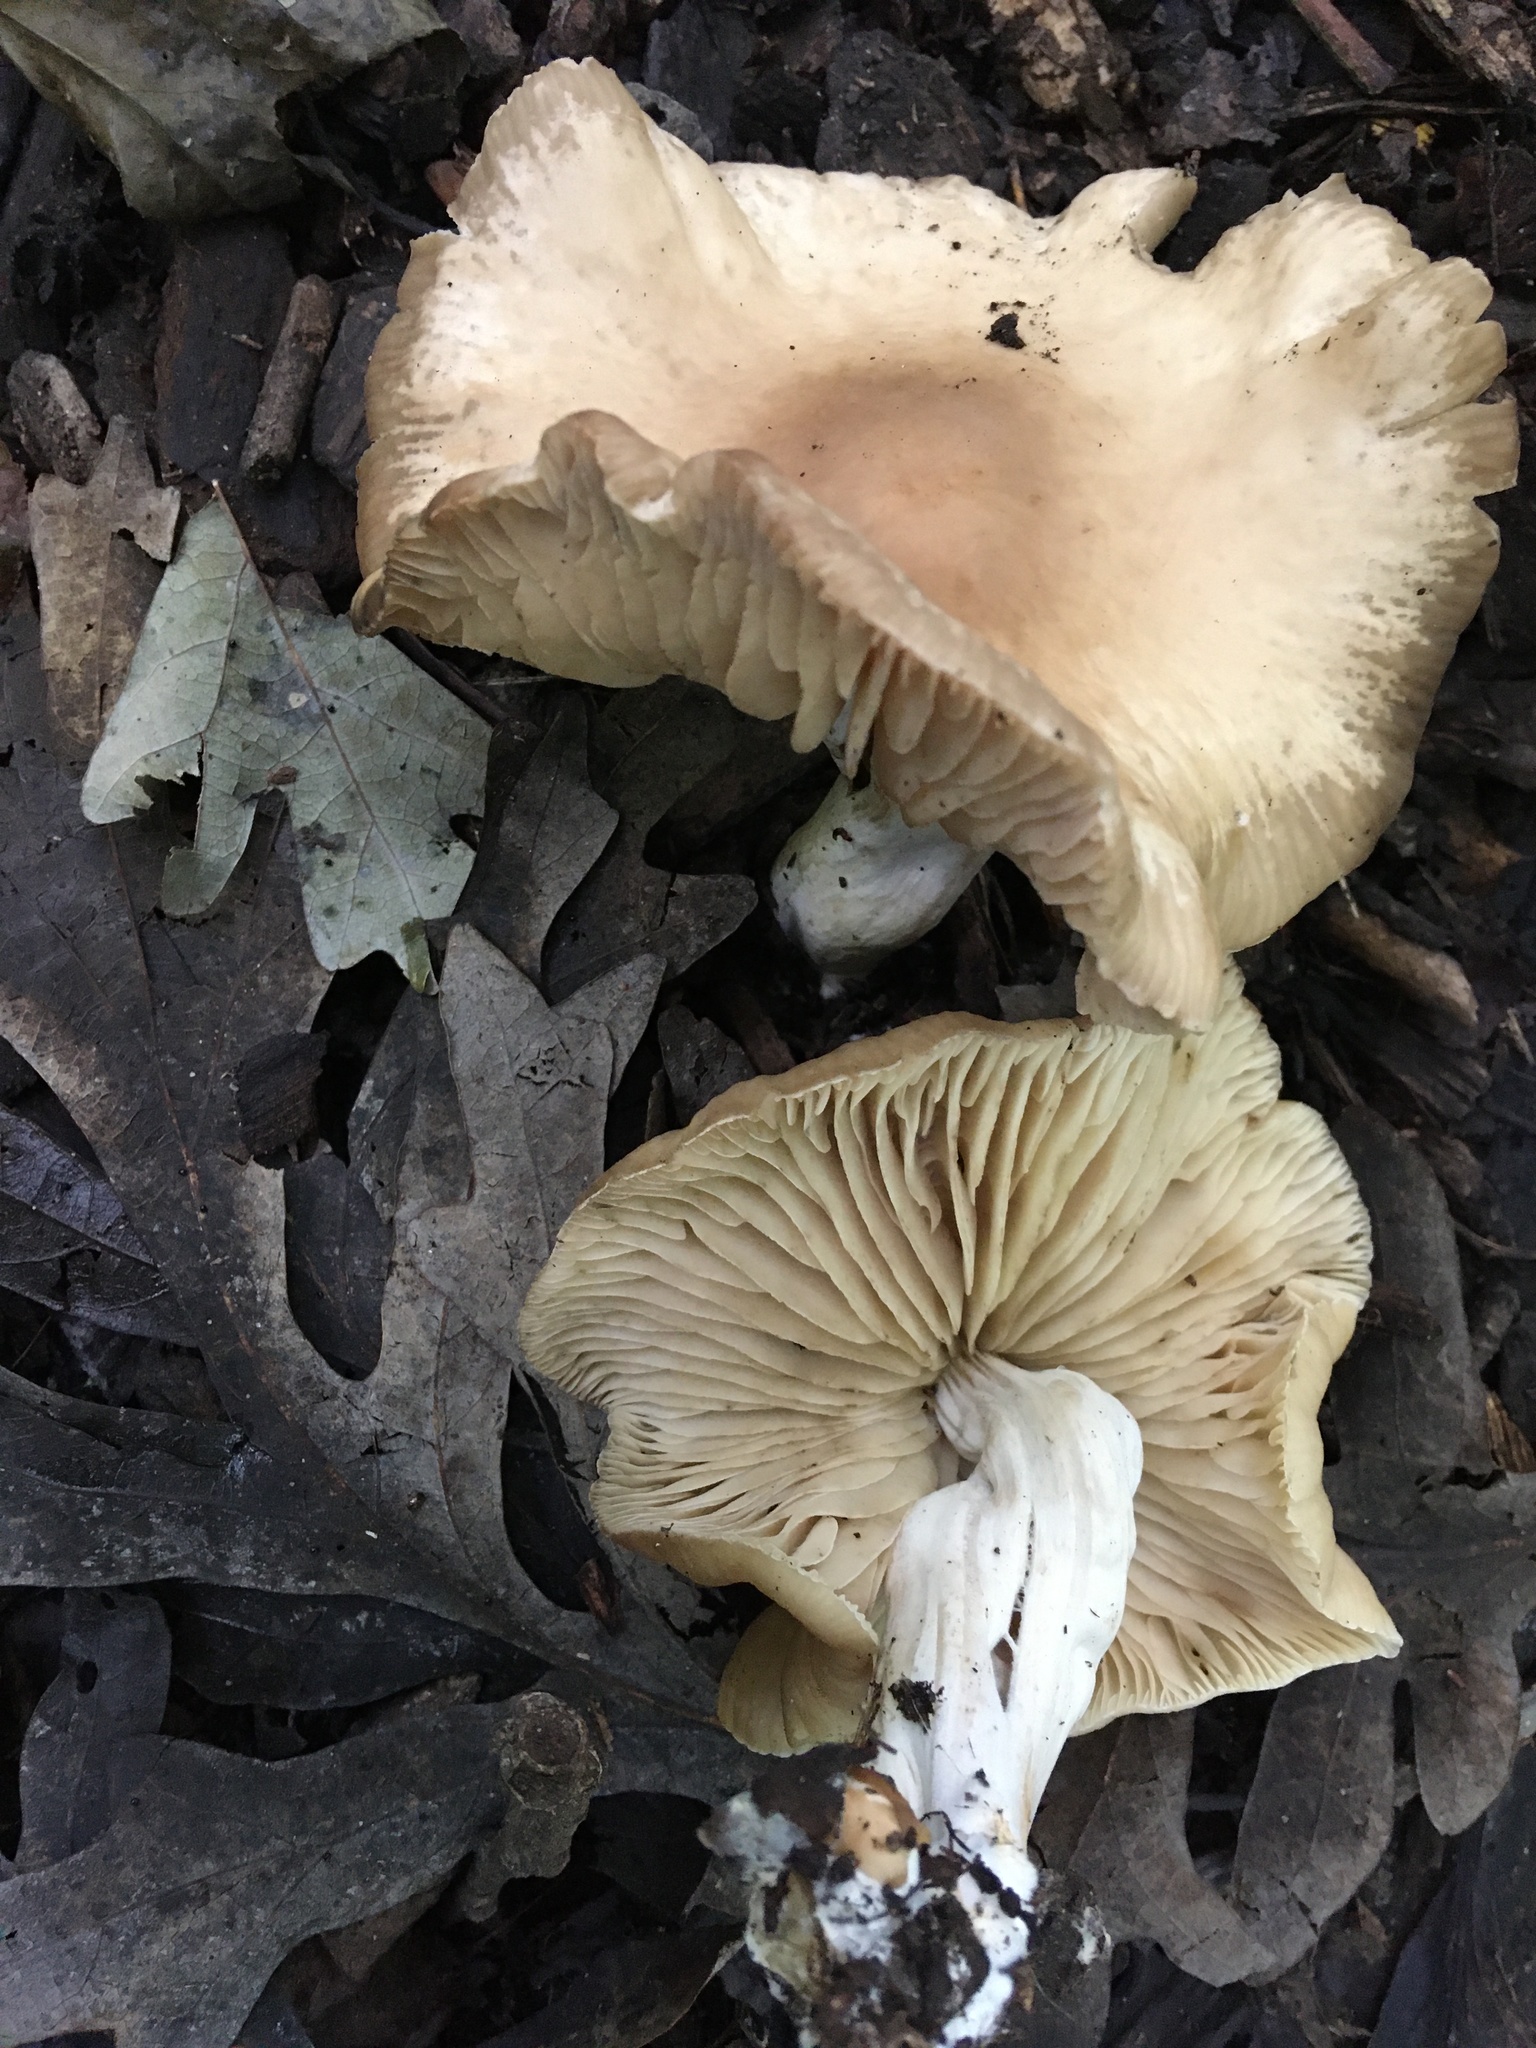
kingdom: Fungi
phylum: Basidiomycota
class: Agaricomycetes
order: Agaricales
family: Marasmiaceae
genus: Marasmius
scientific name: Marasmius nigrodiscus
